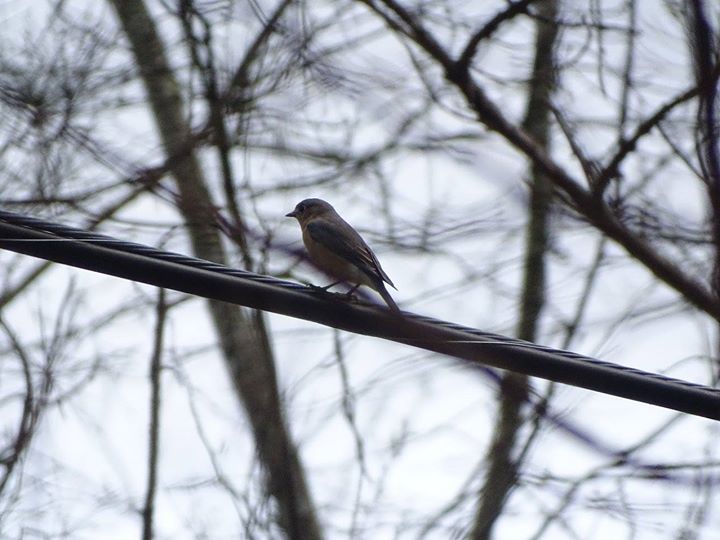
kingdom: Animalia
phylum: Chordata
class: Aves
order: Passeriformes
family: Turdidae
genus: Sialia
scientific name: Sialia sialis
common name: Eastern bluebird
